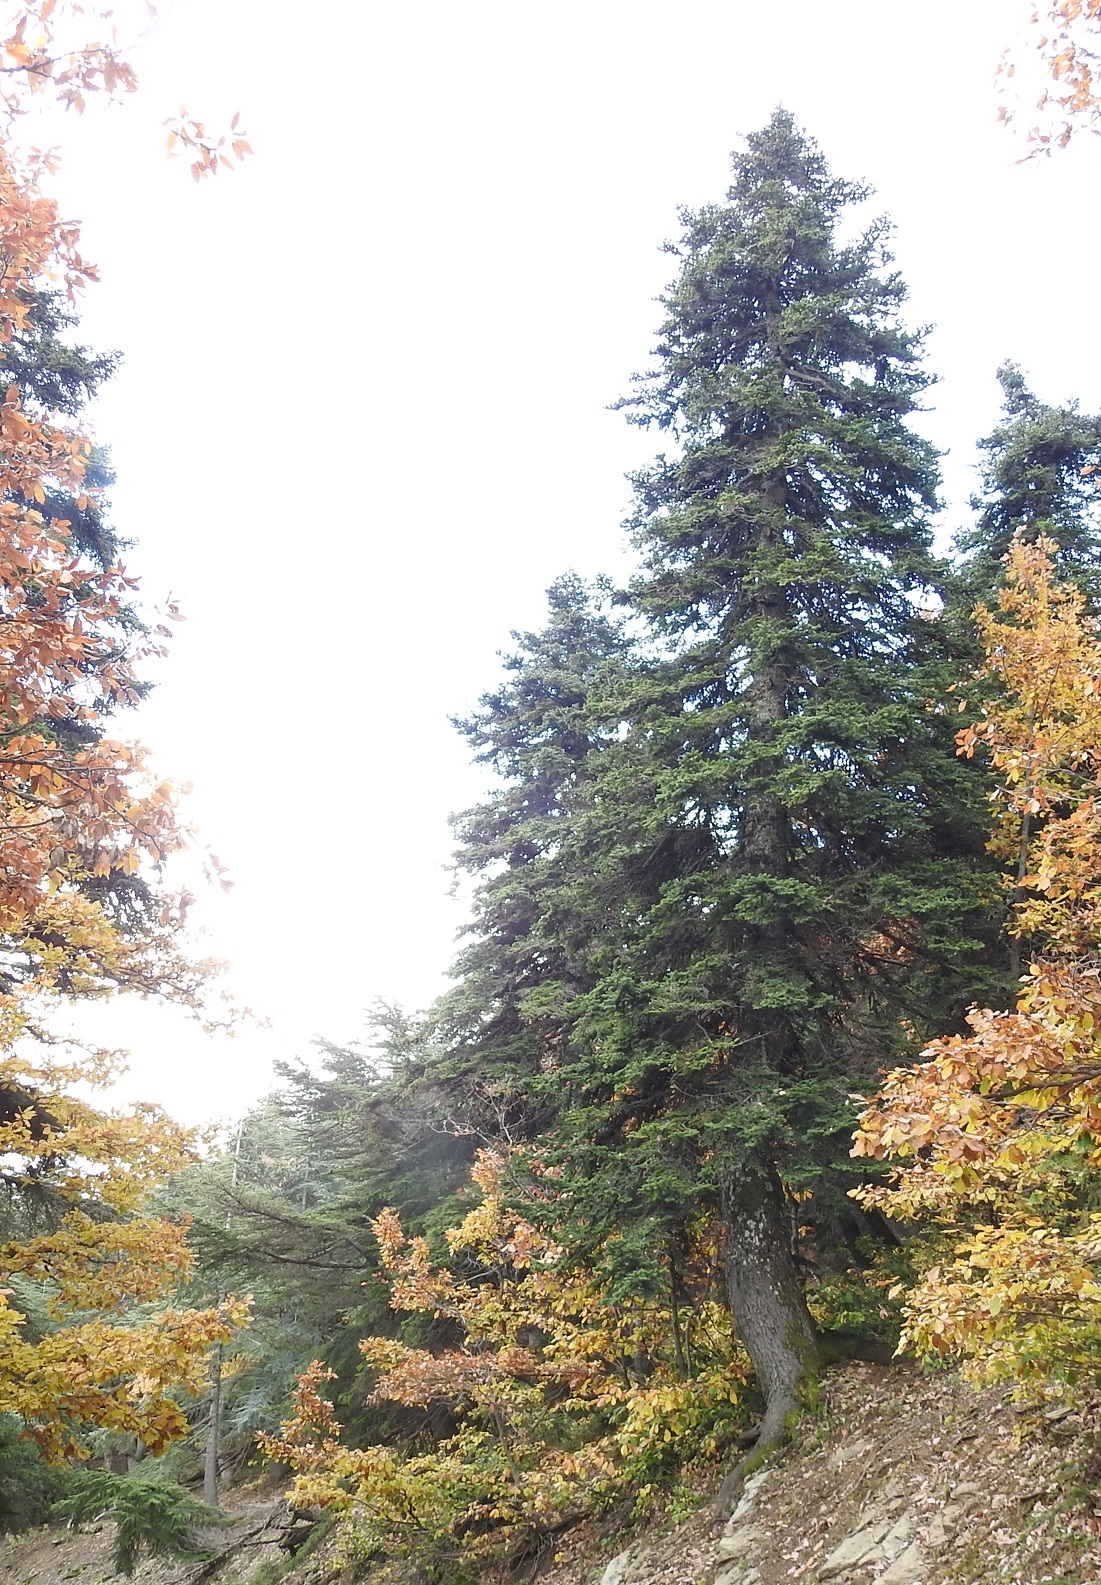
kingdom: Plantae
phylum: Tracheophyta
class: Pinopsida
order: Pinales
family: Pinaceae
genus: Abies
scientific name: Abies numidica
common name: Algerian fir
